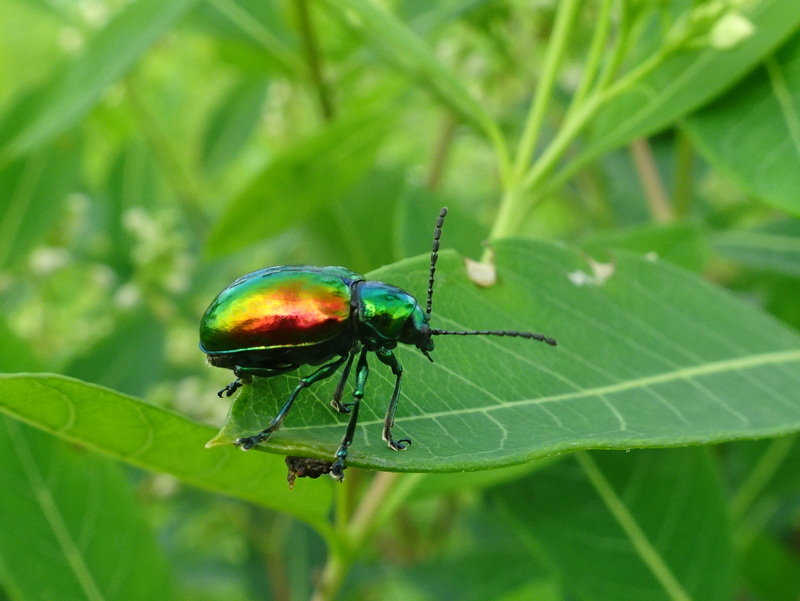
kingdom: Animalia
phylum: Arthropoda
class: Insecta
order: Coleoptera
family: Chrysomelidae
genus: Chrysochus
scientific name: Chrysochus auratus
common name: Dogbane leaf beetle
